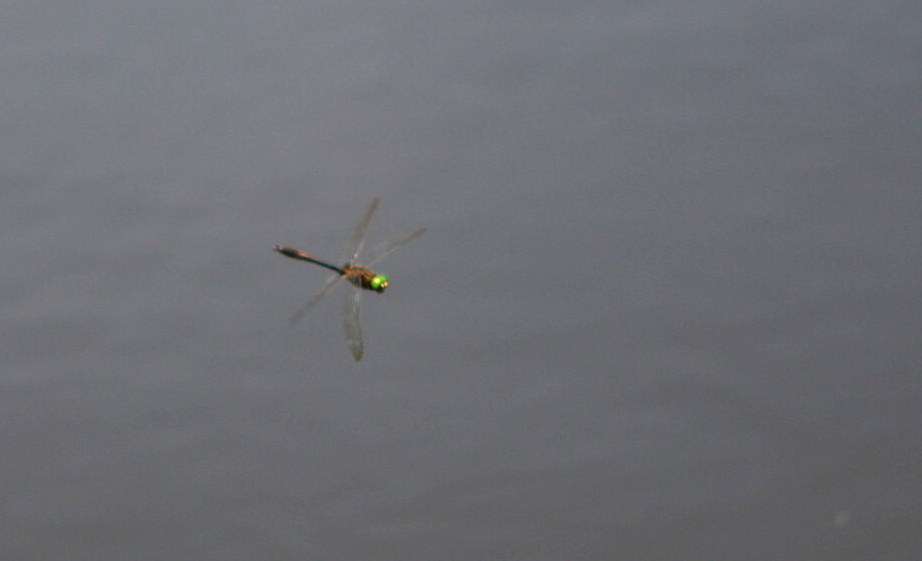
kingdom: Animalia
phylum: Arthropoda
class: Insecta
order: Odonata
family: Corduliidae
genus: Cordulia
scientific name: Cordulia aenea
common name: Downy emerald
